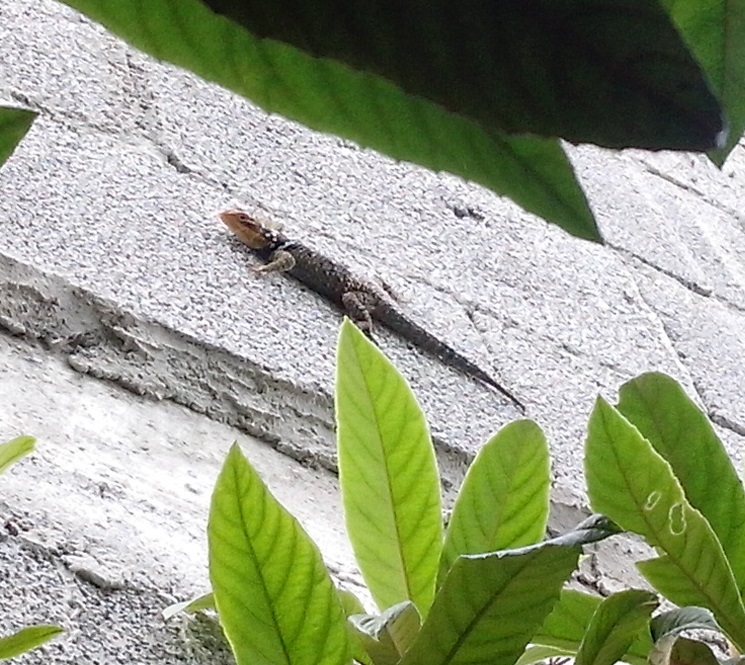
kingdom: Animalia
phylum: Chordata
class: Squamata
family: Phrynosomatidae
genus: Sceloporus
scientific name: Sceloporus cyanogenys
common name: Blue spiny lizard
